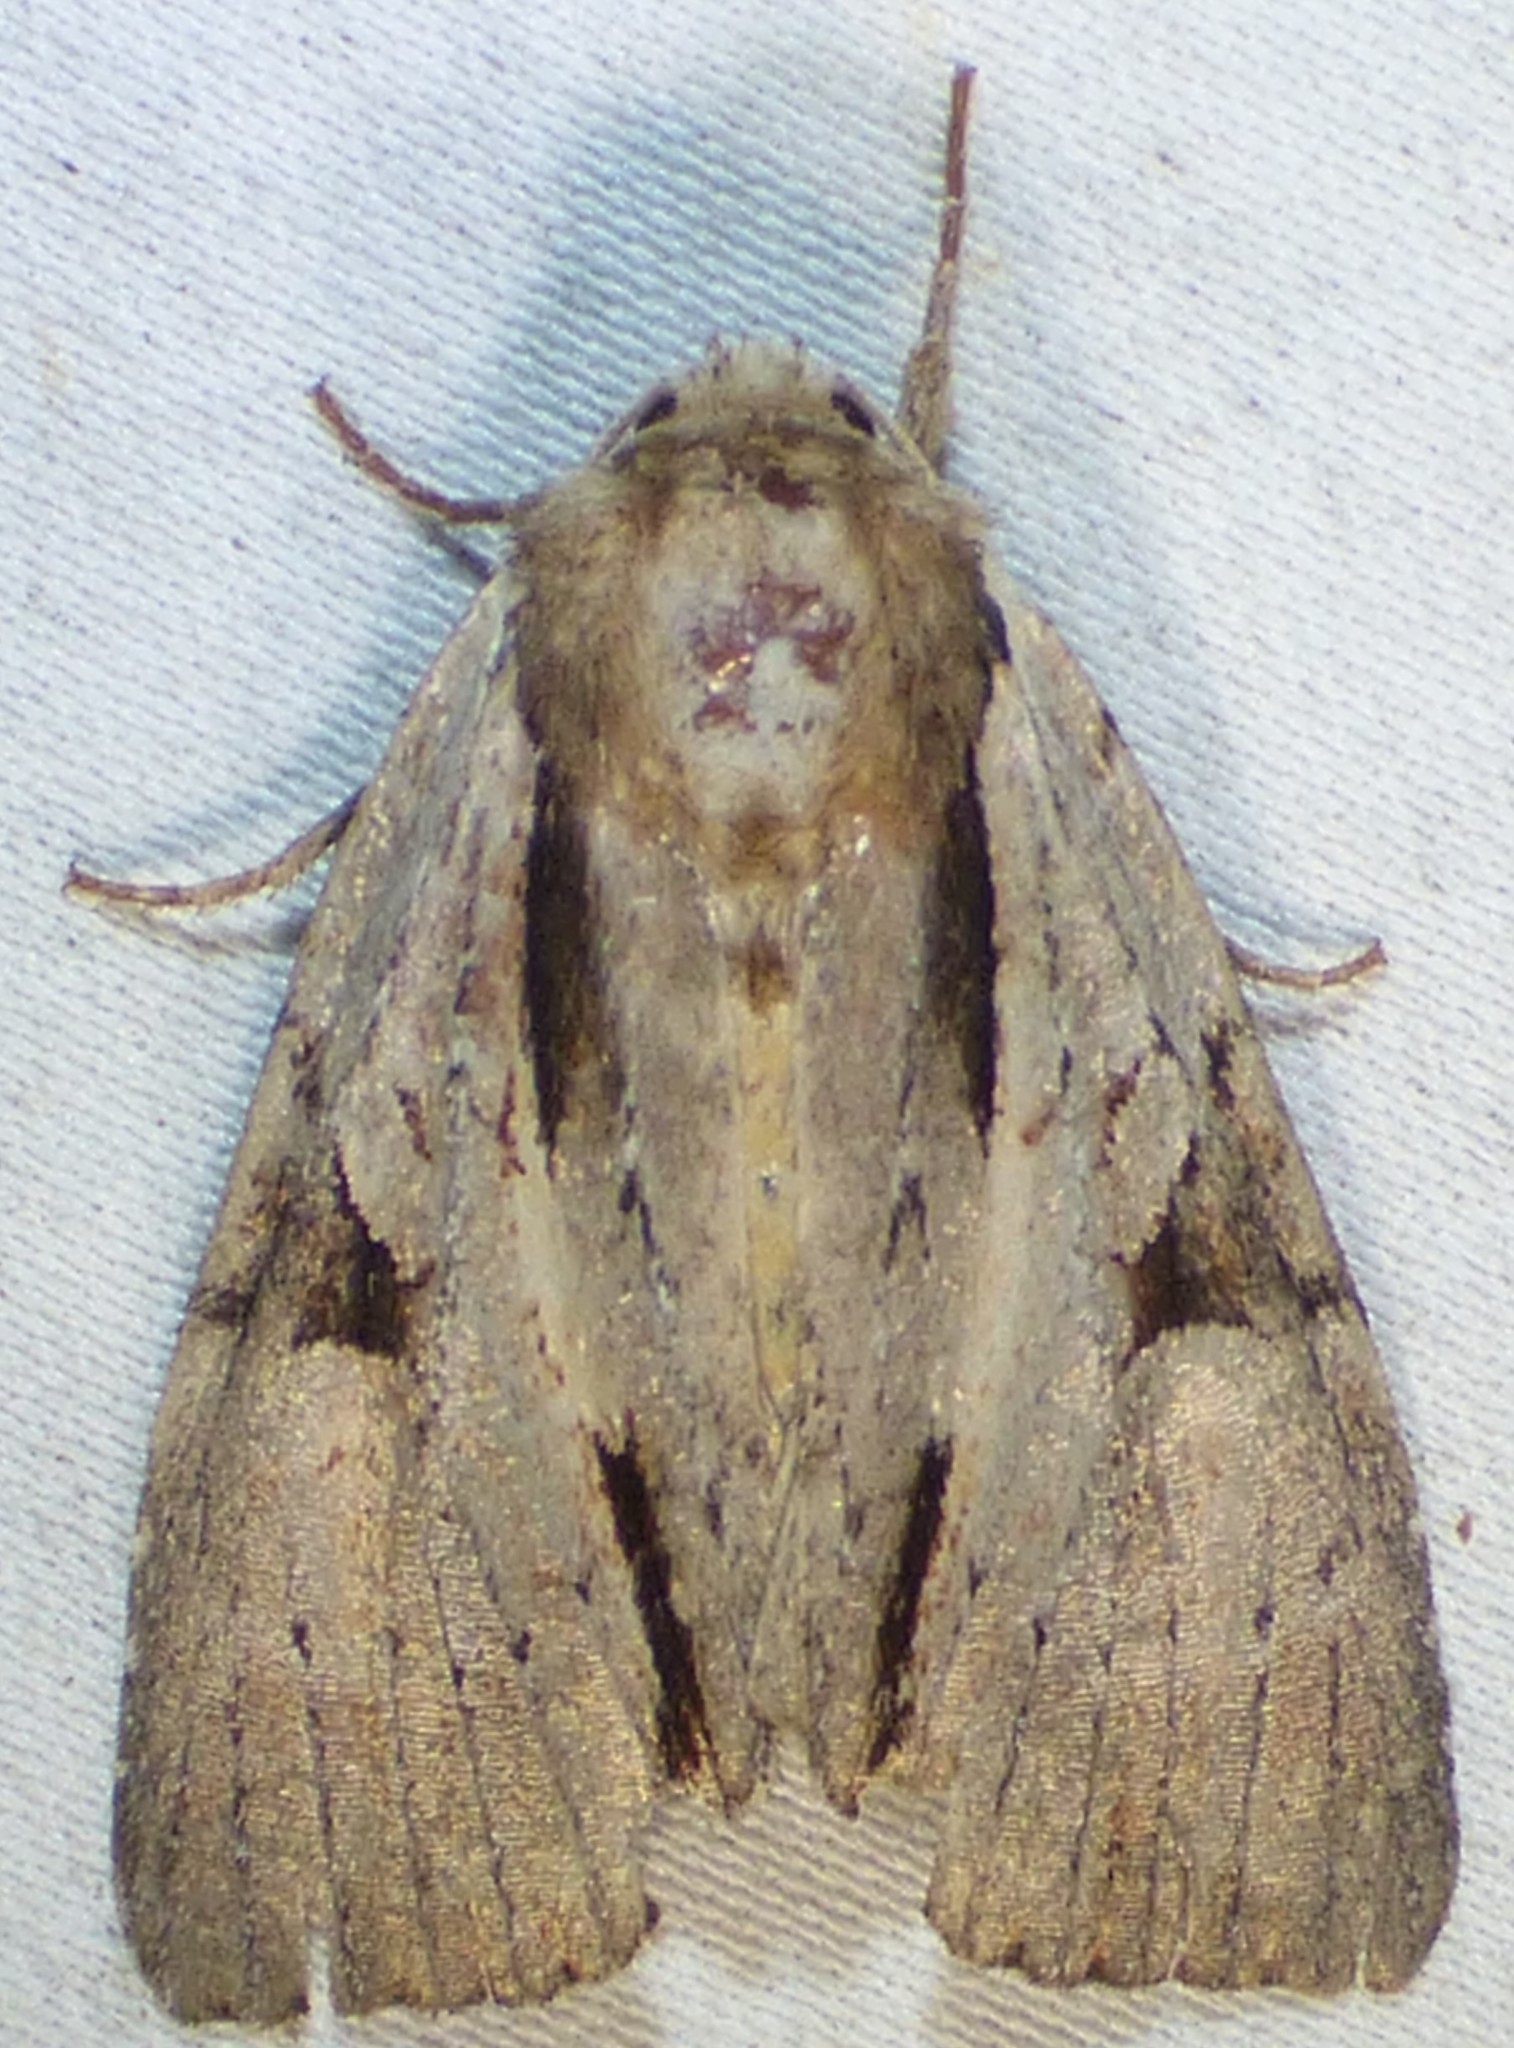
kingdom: Animalia
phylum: Arthropoda
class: Insecta
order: Lepidoptera
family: Noctuidae
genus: Achatia
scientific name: Achatia Morrisonia triangula
